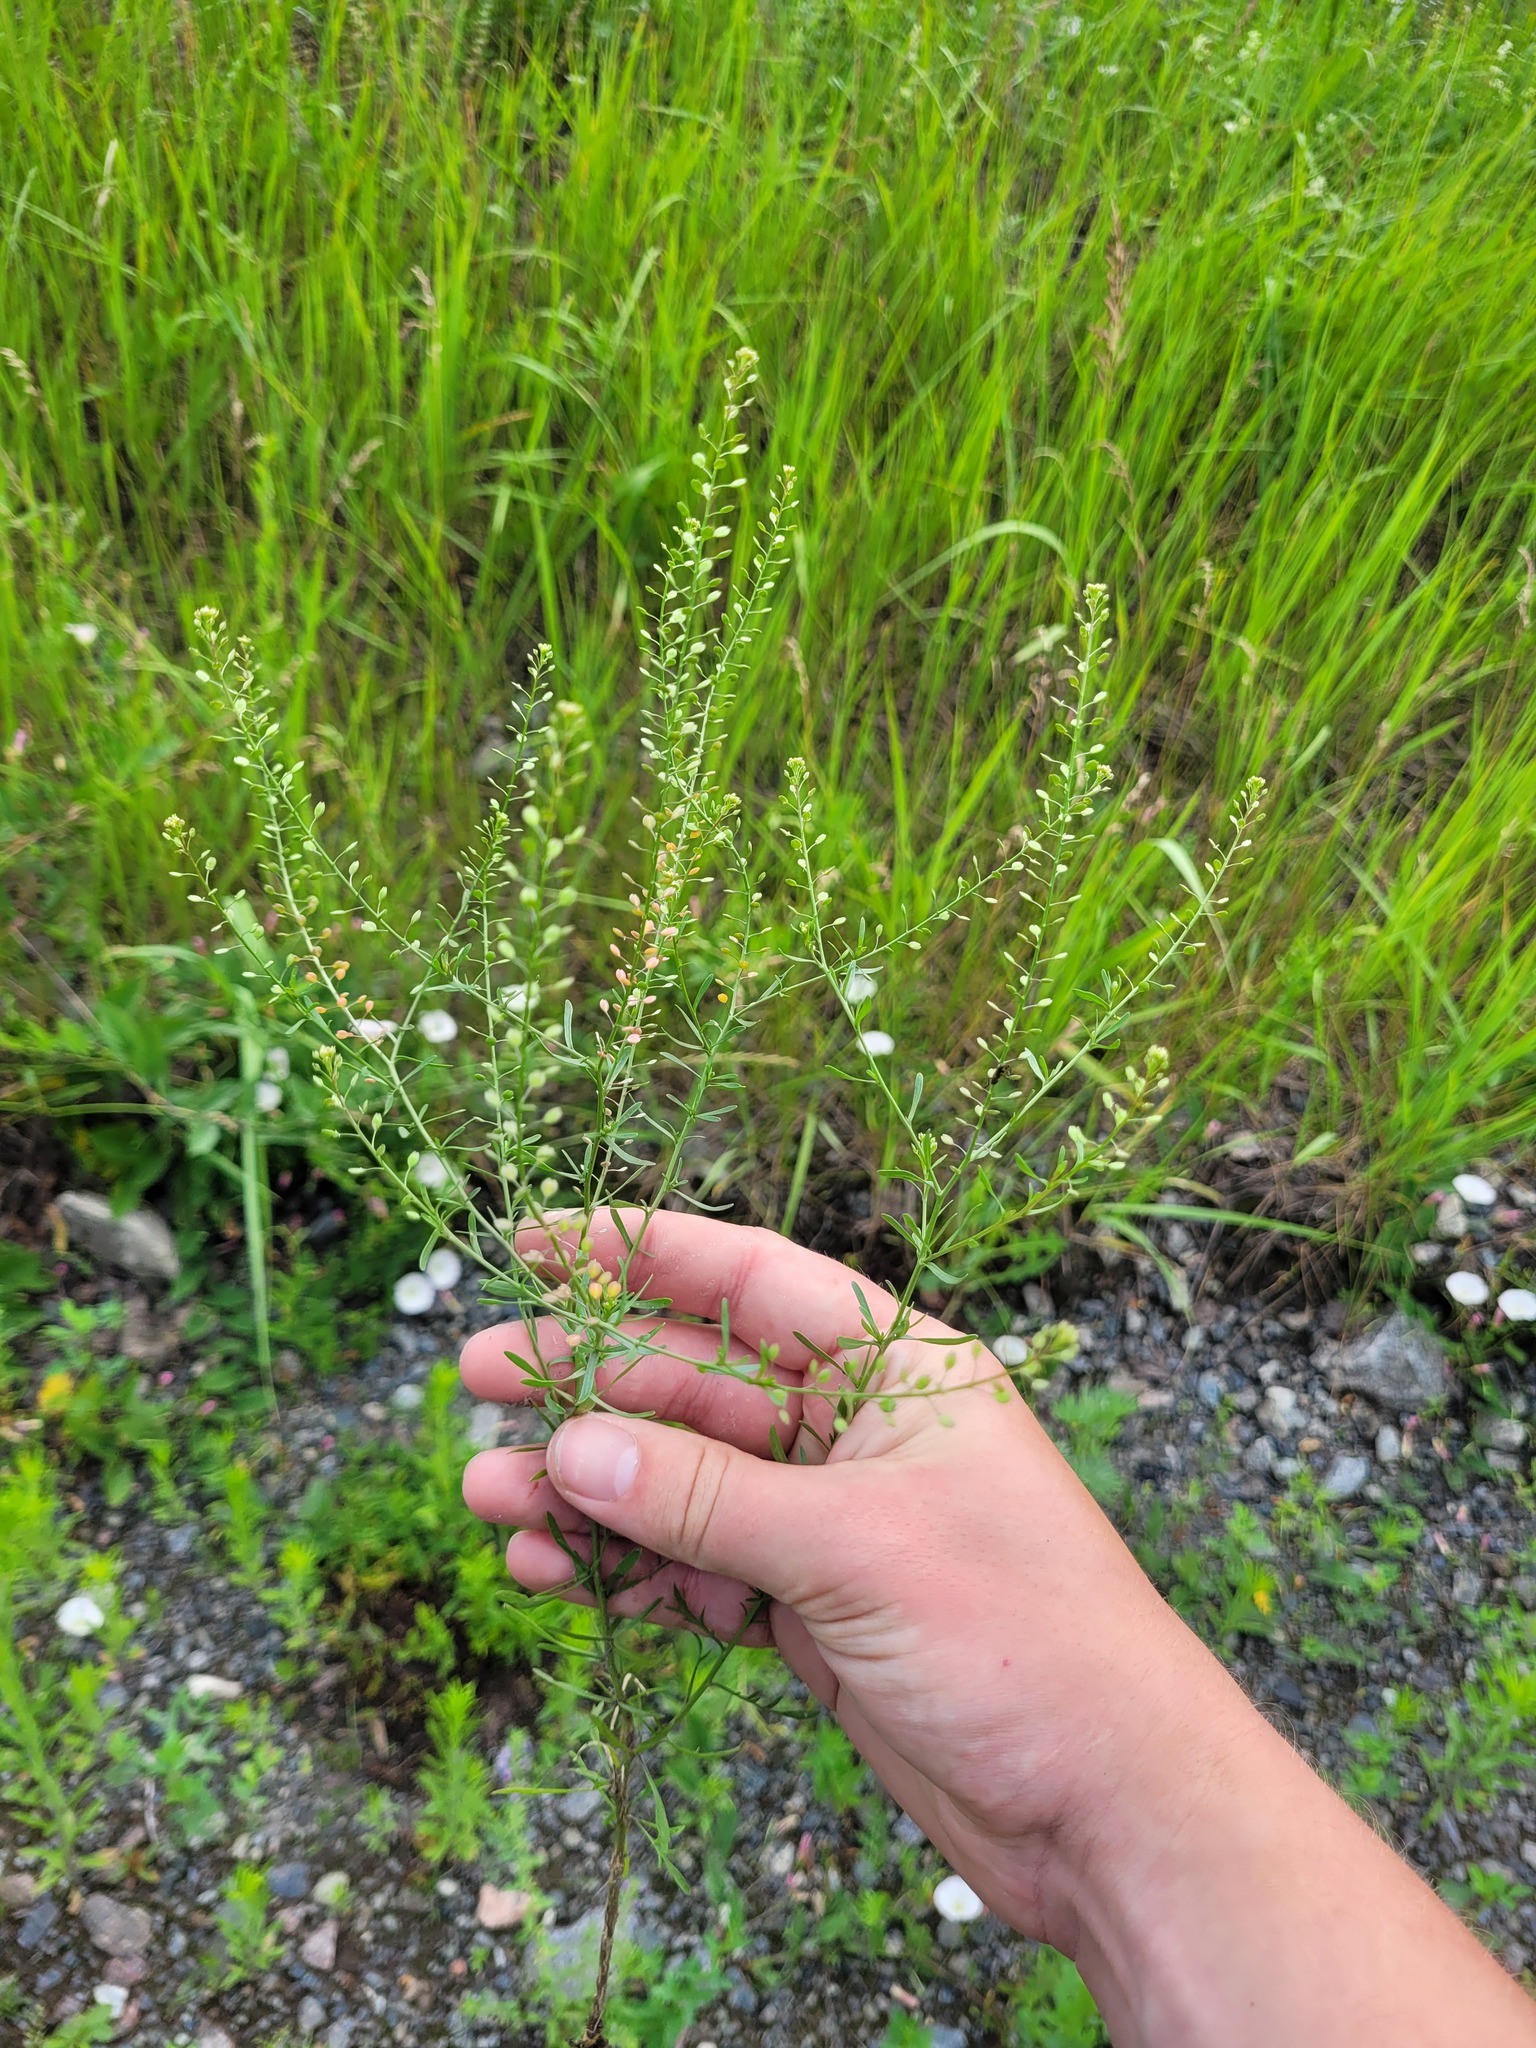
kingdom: Plantae
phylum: Tracheophyta
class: Magnoliopsida
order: Brassicales
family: Brassicaceae
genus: Lepidium
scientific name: Lepidium ruderale
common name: Narrow-leaved pepperwort
